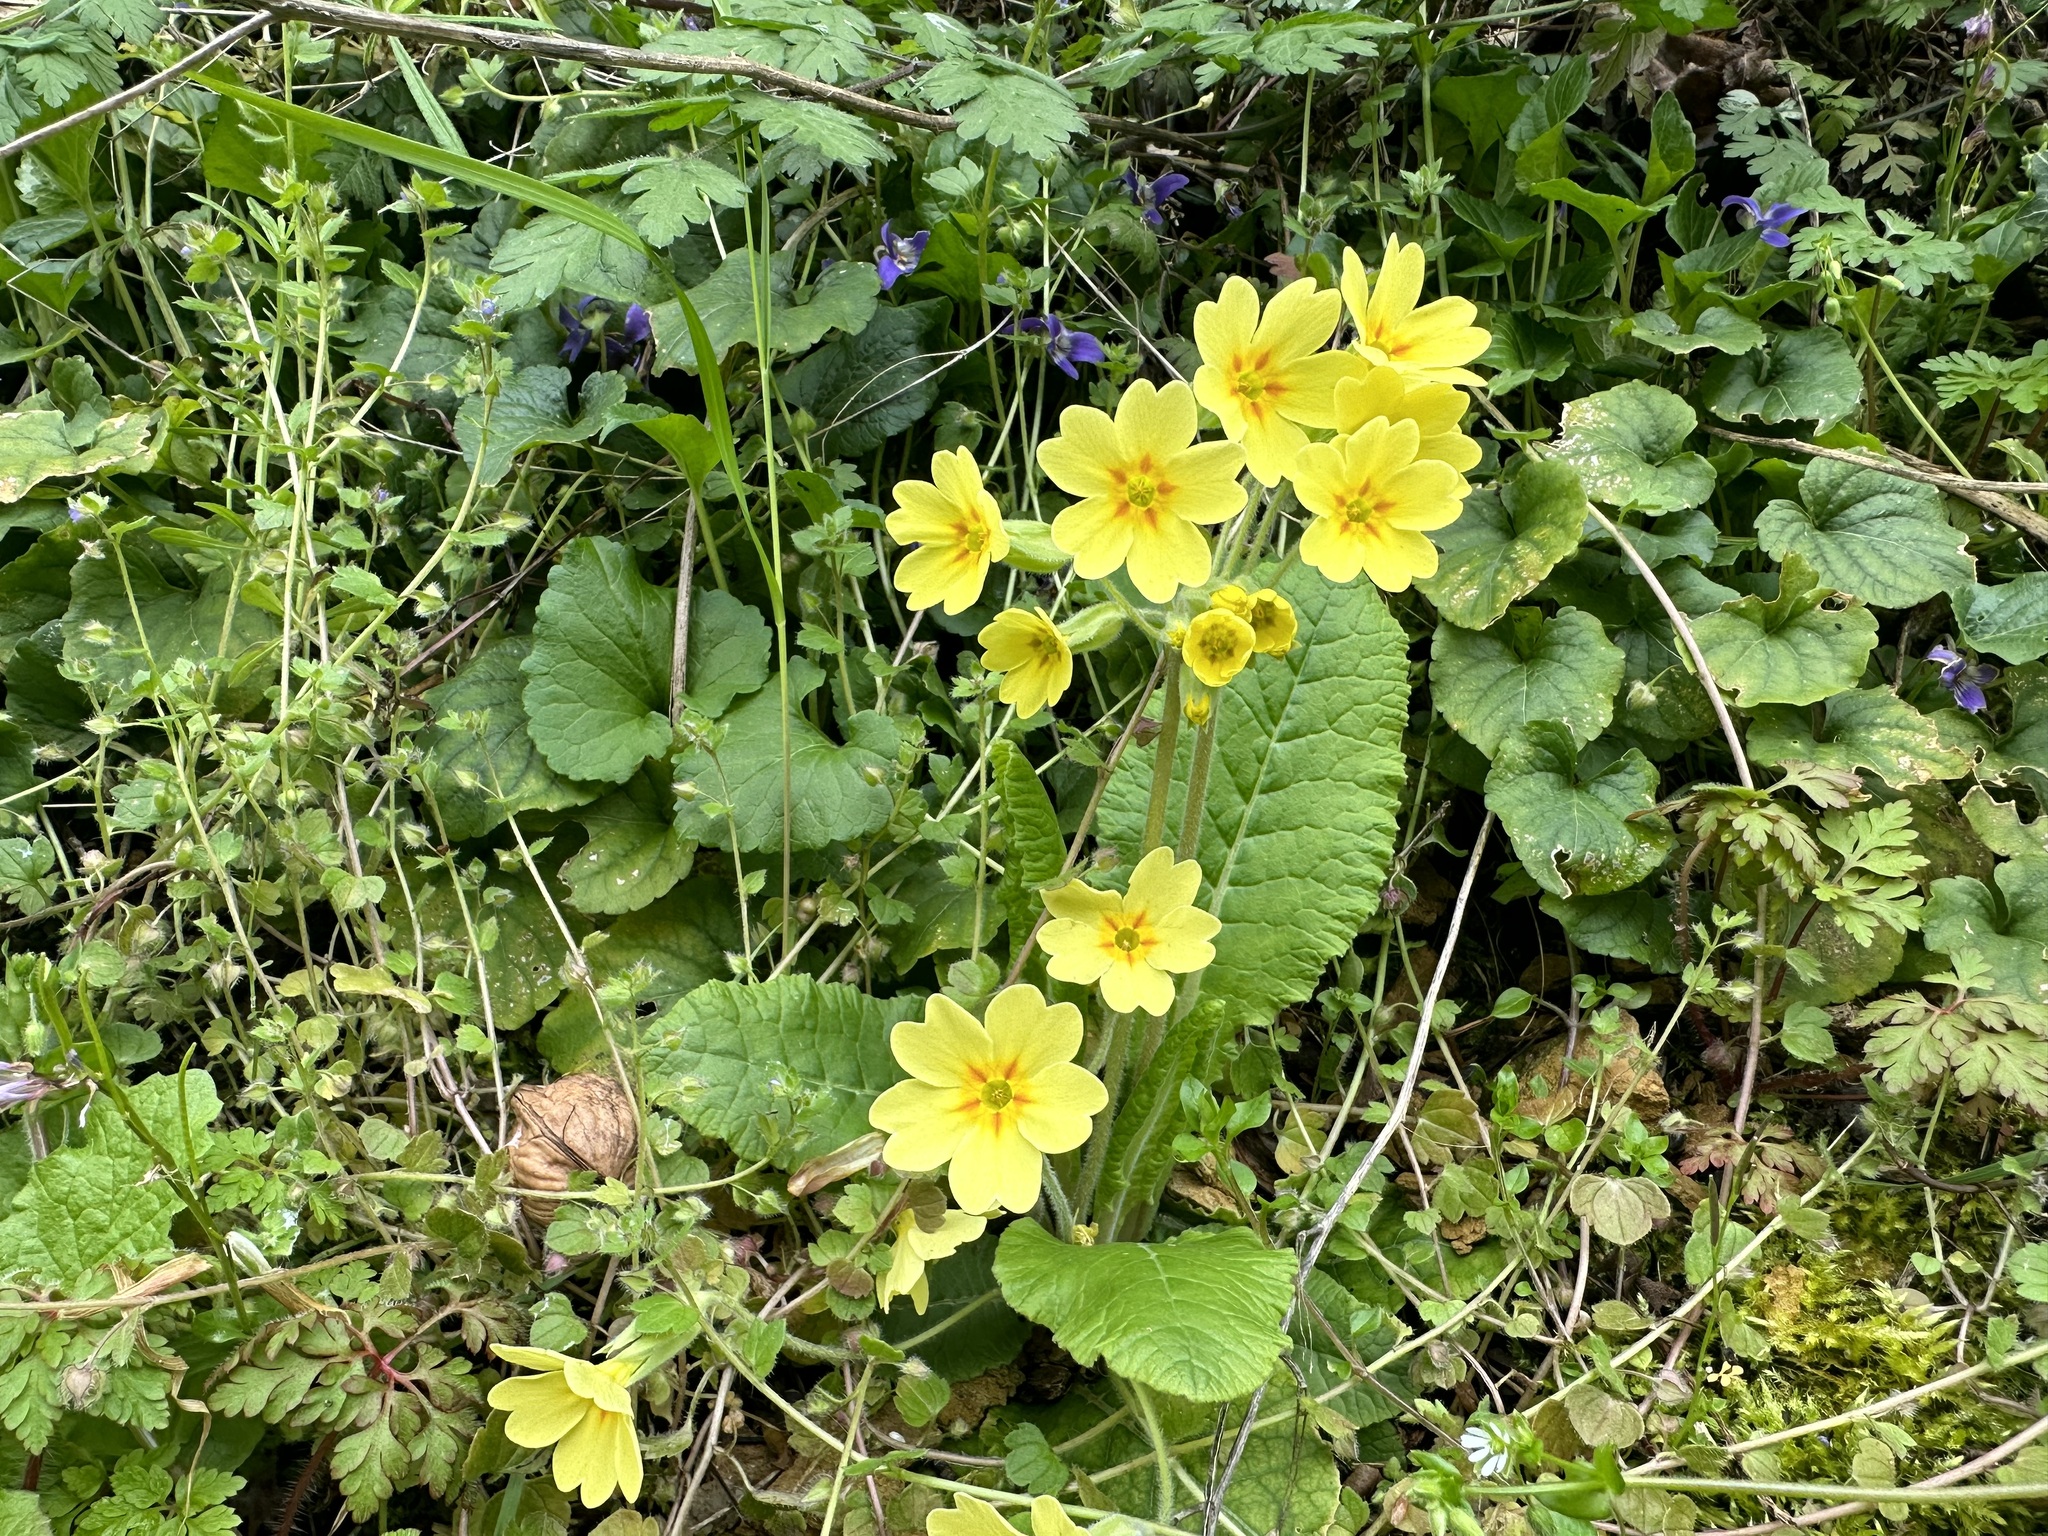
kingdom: Plantae
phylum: Tracheophyta
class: Magnoliopsida
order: Ericales
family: Primulaceae
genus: Primula
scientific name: Primula polyantha
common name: False oxlip
